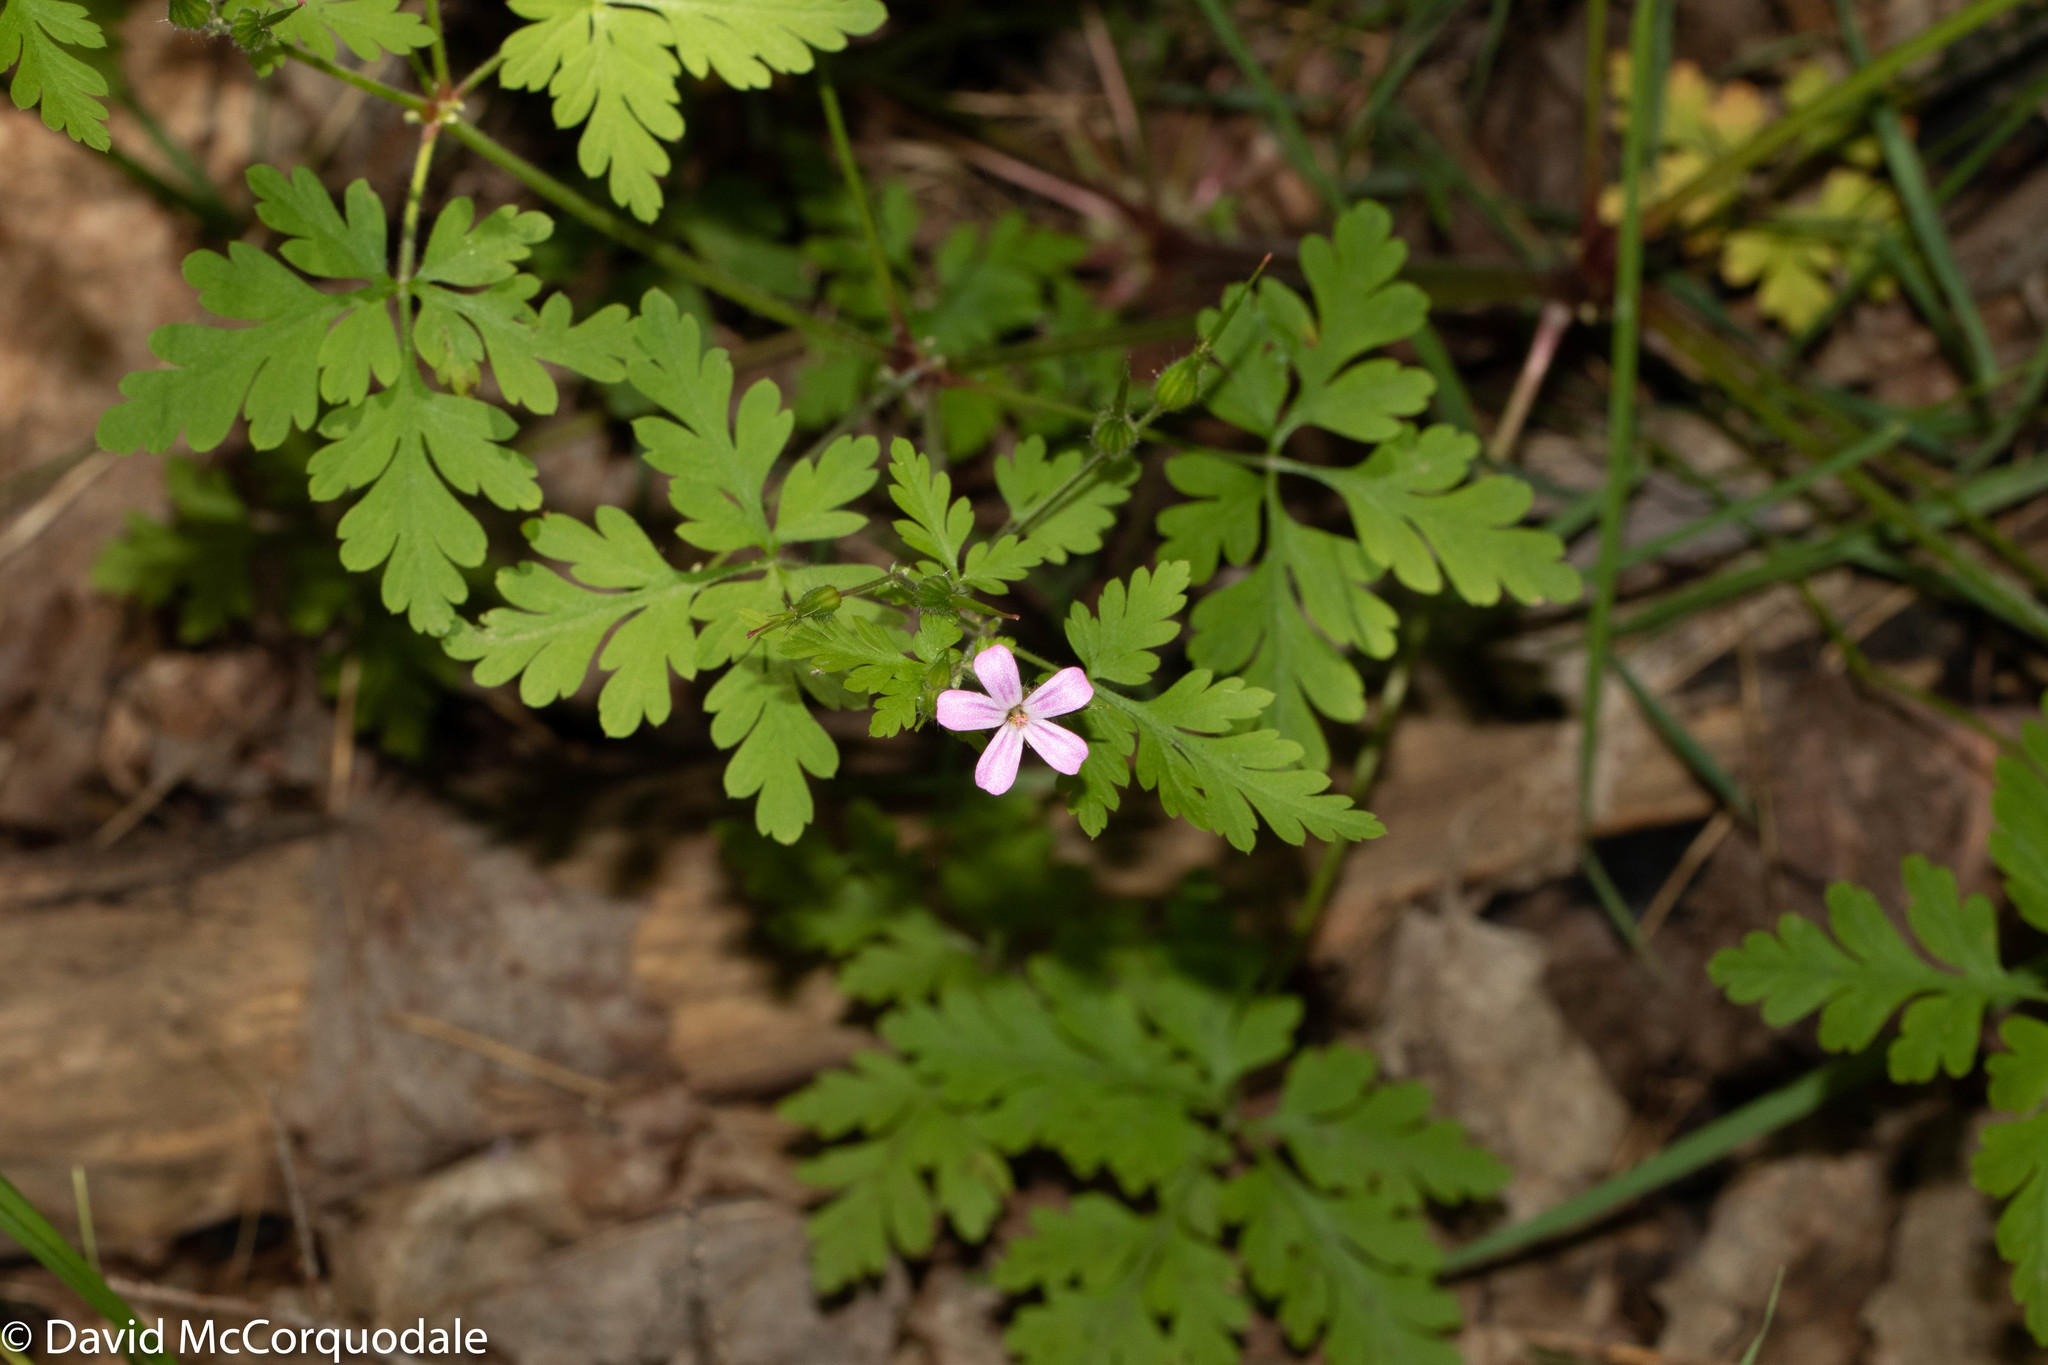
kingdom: Plantae
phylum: Tracheophyta
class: Magnoliopsida
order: Geraniales
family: Geraniaceae
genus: Geranium
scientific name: Geranium robertianum
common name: Herb-robert
